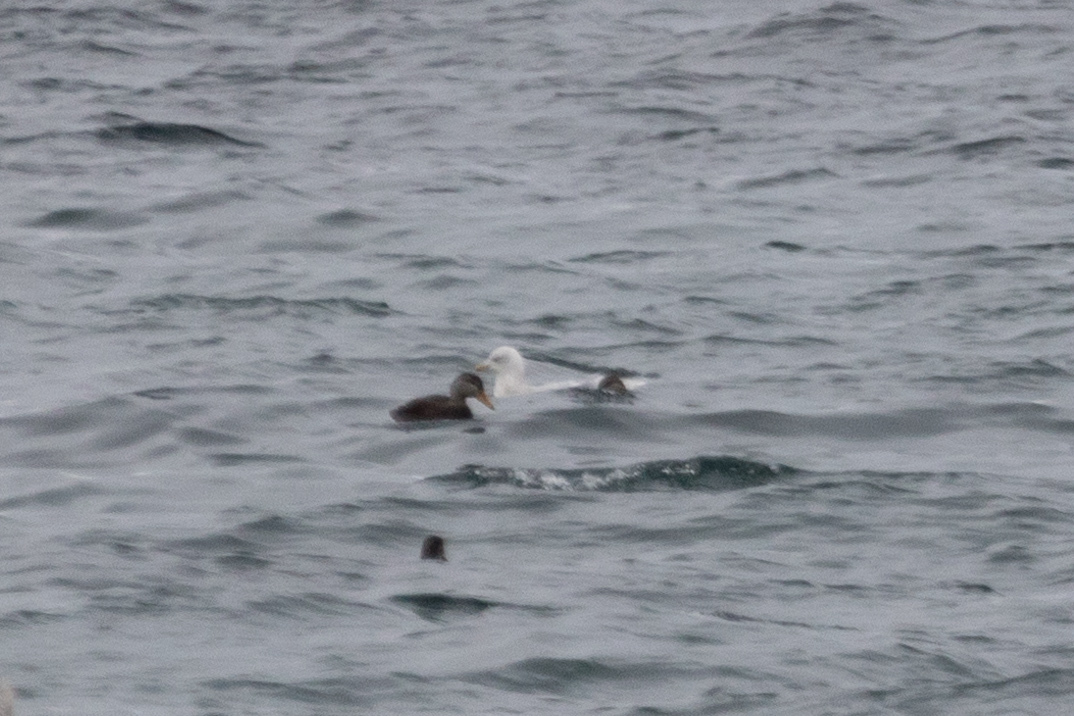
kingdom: Animalia
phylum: Chordata
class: Aves
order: Charadriiformes
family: Laridae
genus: Larus
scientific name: Larus glaucoides
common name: Iceland gull
